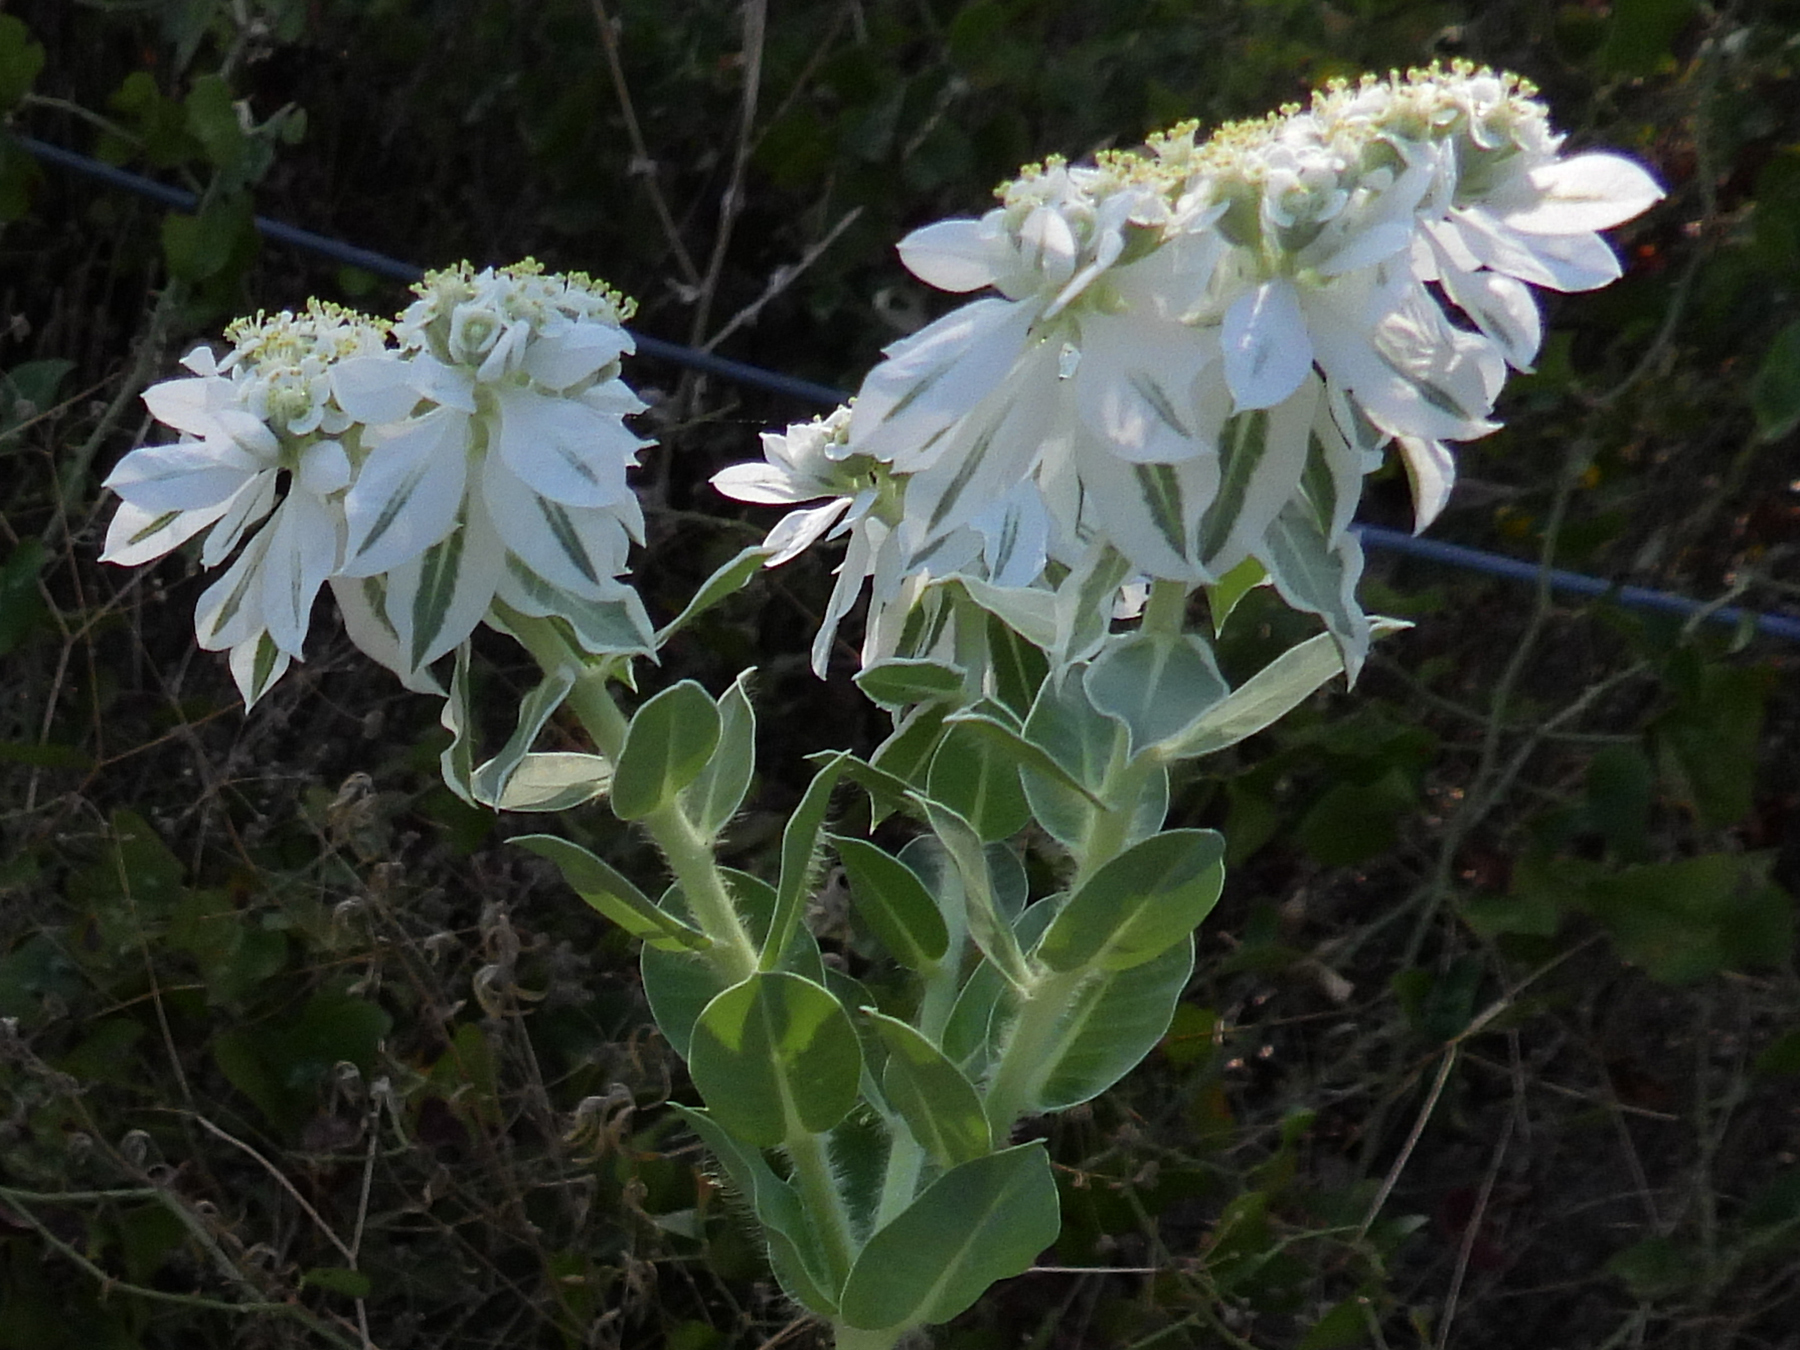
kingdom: Plantae
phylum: Tracheophyta
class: Magnoliopsida
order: Malpighiales
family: Euphorbiaceae
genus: Euphorbia
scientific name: Euphorbia marginata
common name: Ghostweed
